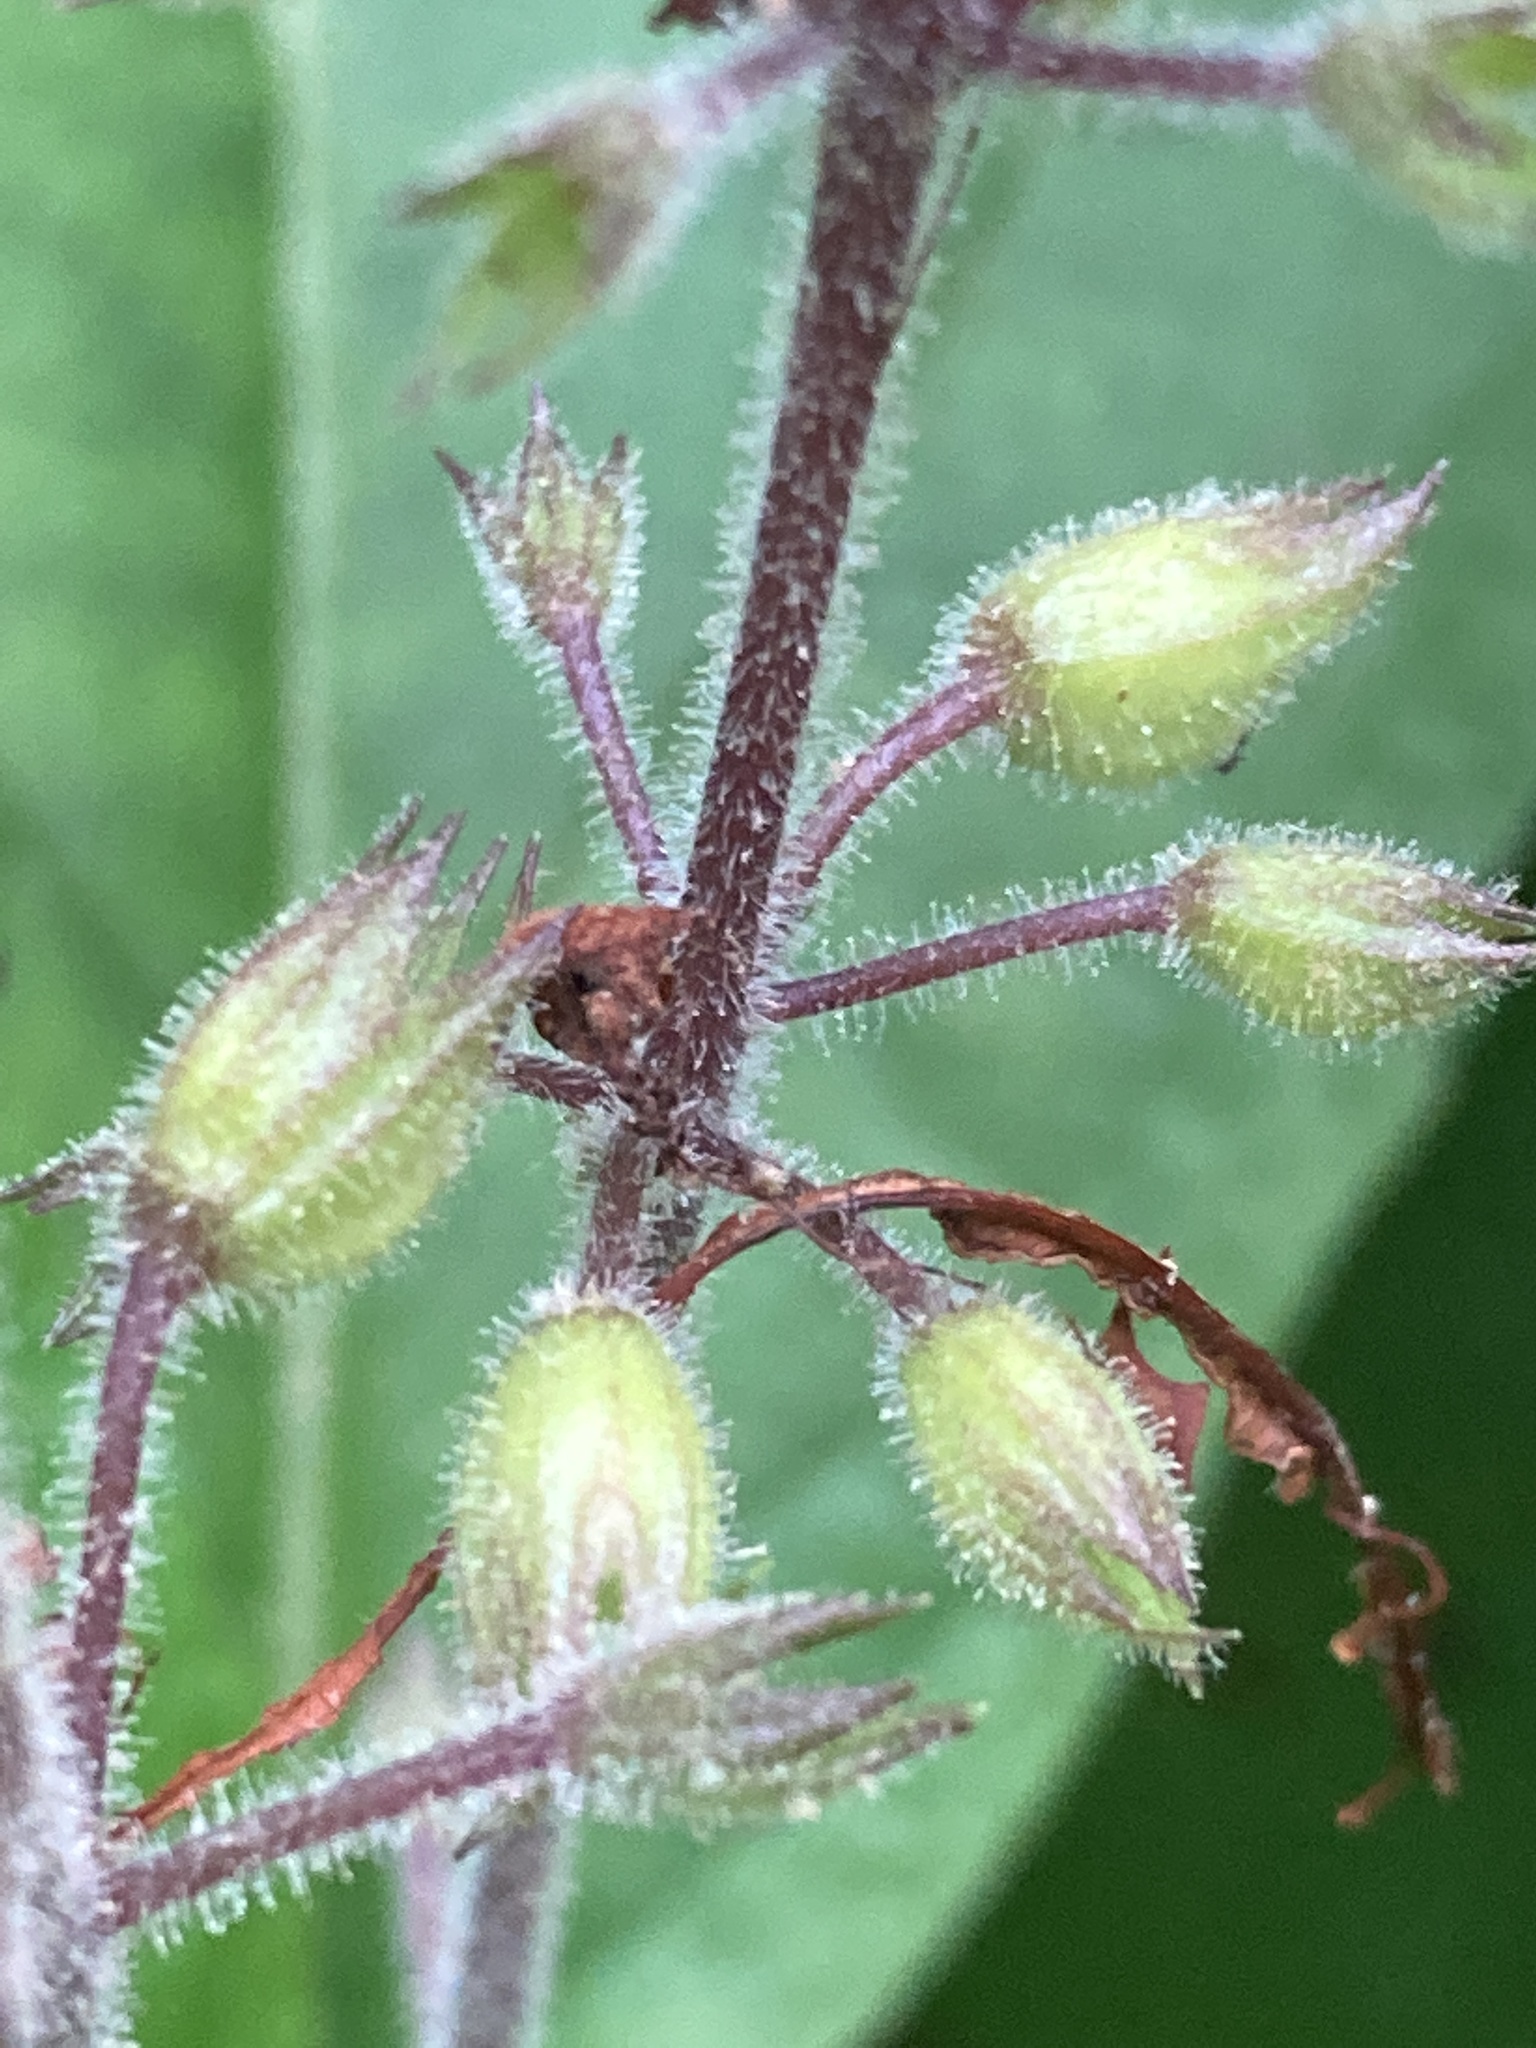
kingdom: Plantae
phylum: Tracheophyta
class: Magnoliopsida
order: Lamiales
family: Lamiaceae
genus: Collinsonia
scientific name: Collinsonia verticillata
